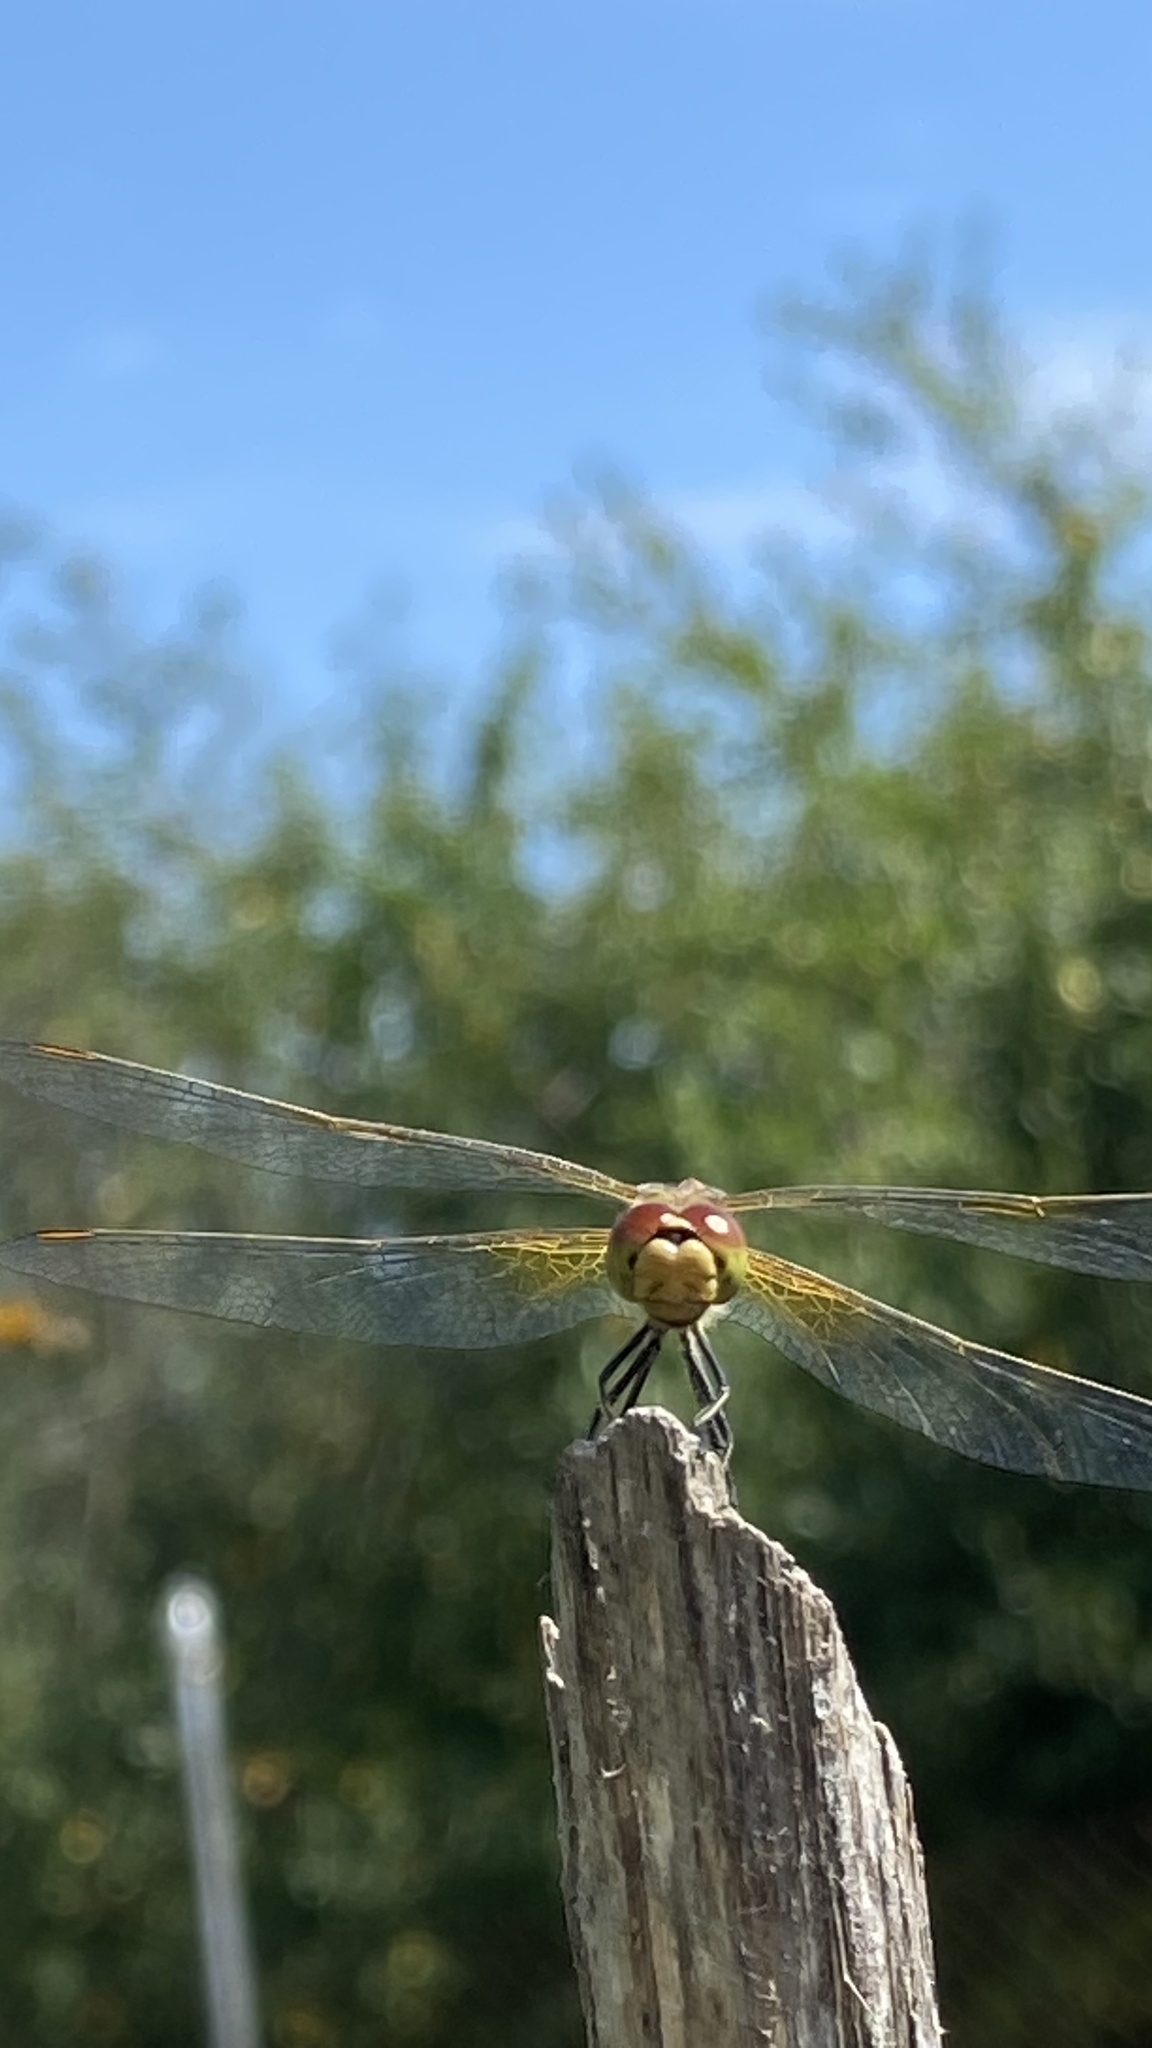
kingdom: Animalia
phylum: Arthropoda
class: Insecta
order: Odonata
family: Libellulidae
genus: Sympetrum
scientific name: Sympetrum flaveolum
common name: Yellow-winged darter
